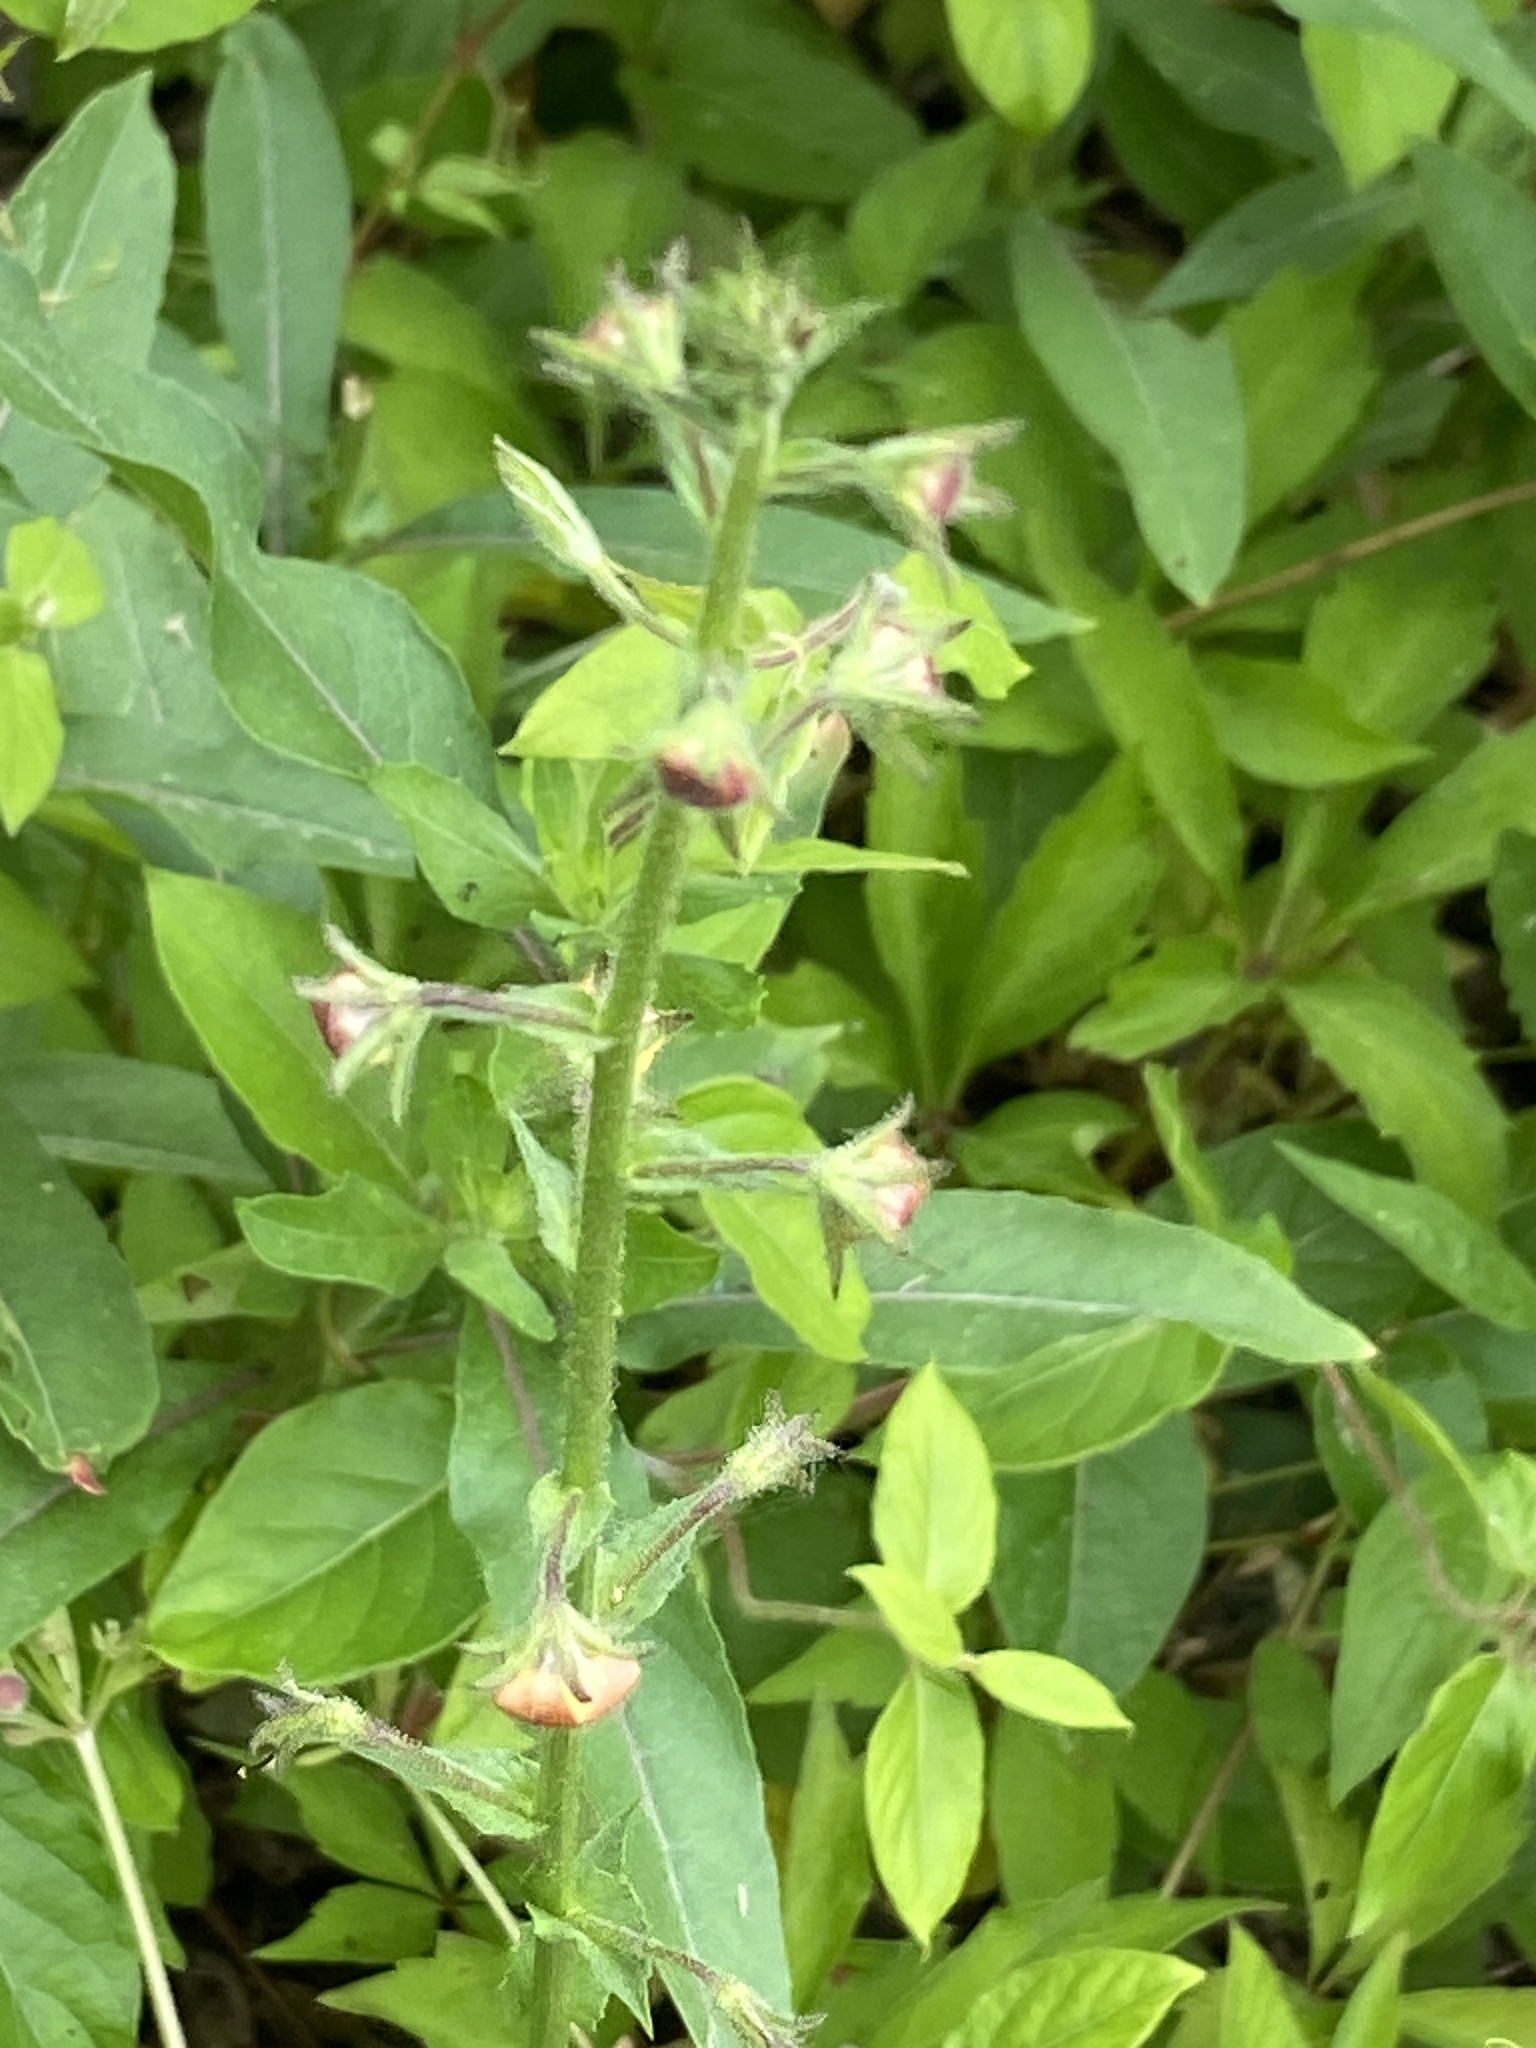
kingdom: Plantae
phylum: Tracheophyta
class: Magnoliopsida
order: Lamiales
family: Scrophulariaceae
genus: Verbascum
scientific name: Verbascum blattaria
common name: Moth mullein
